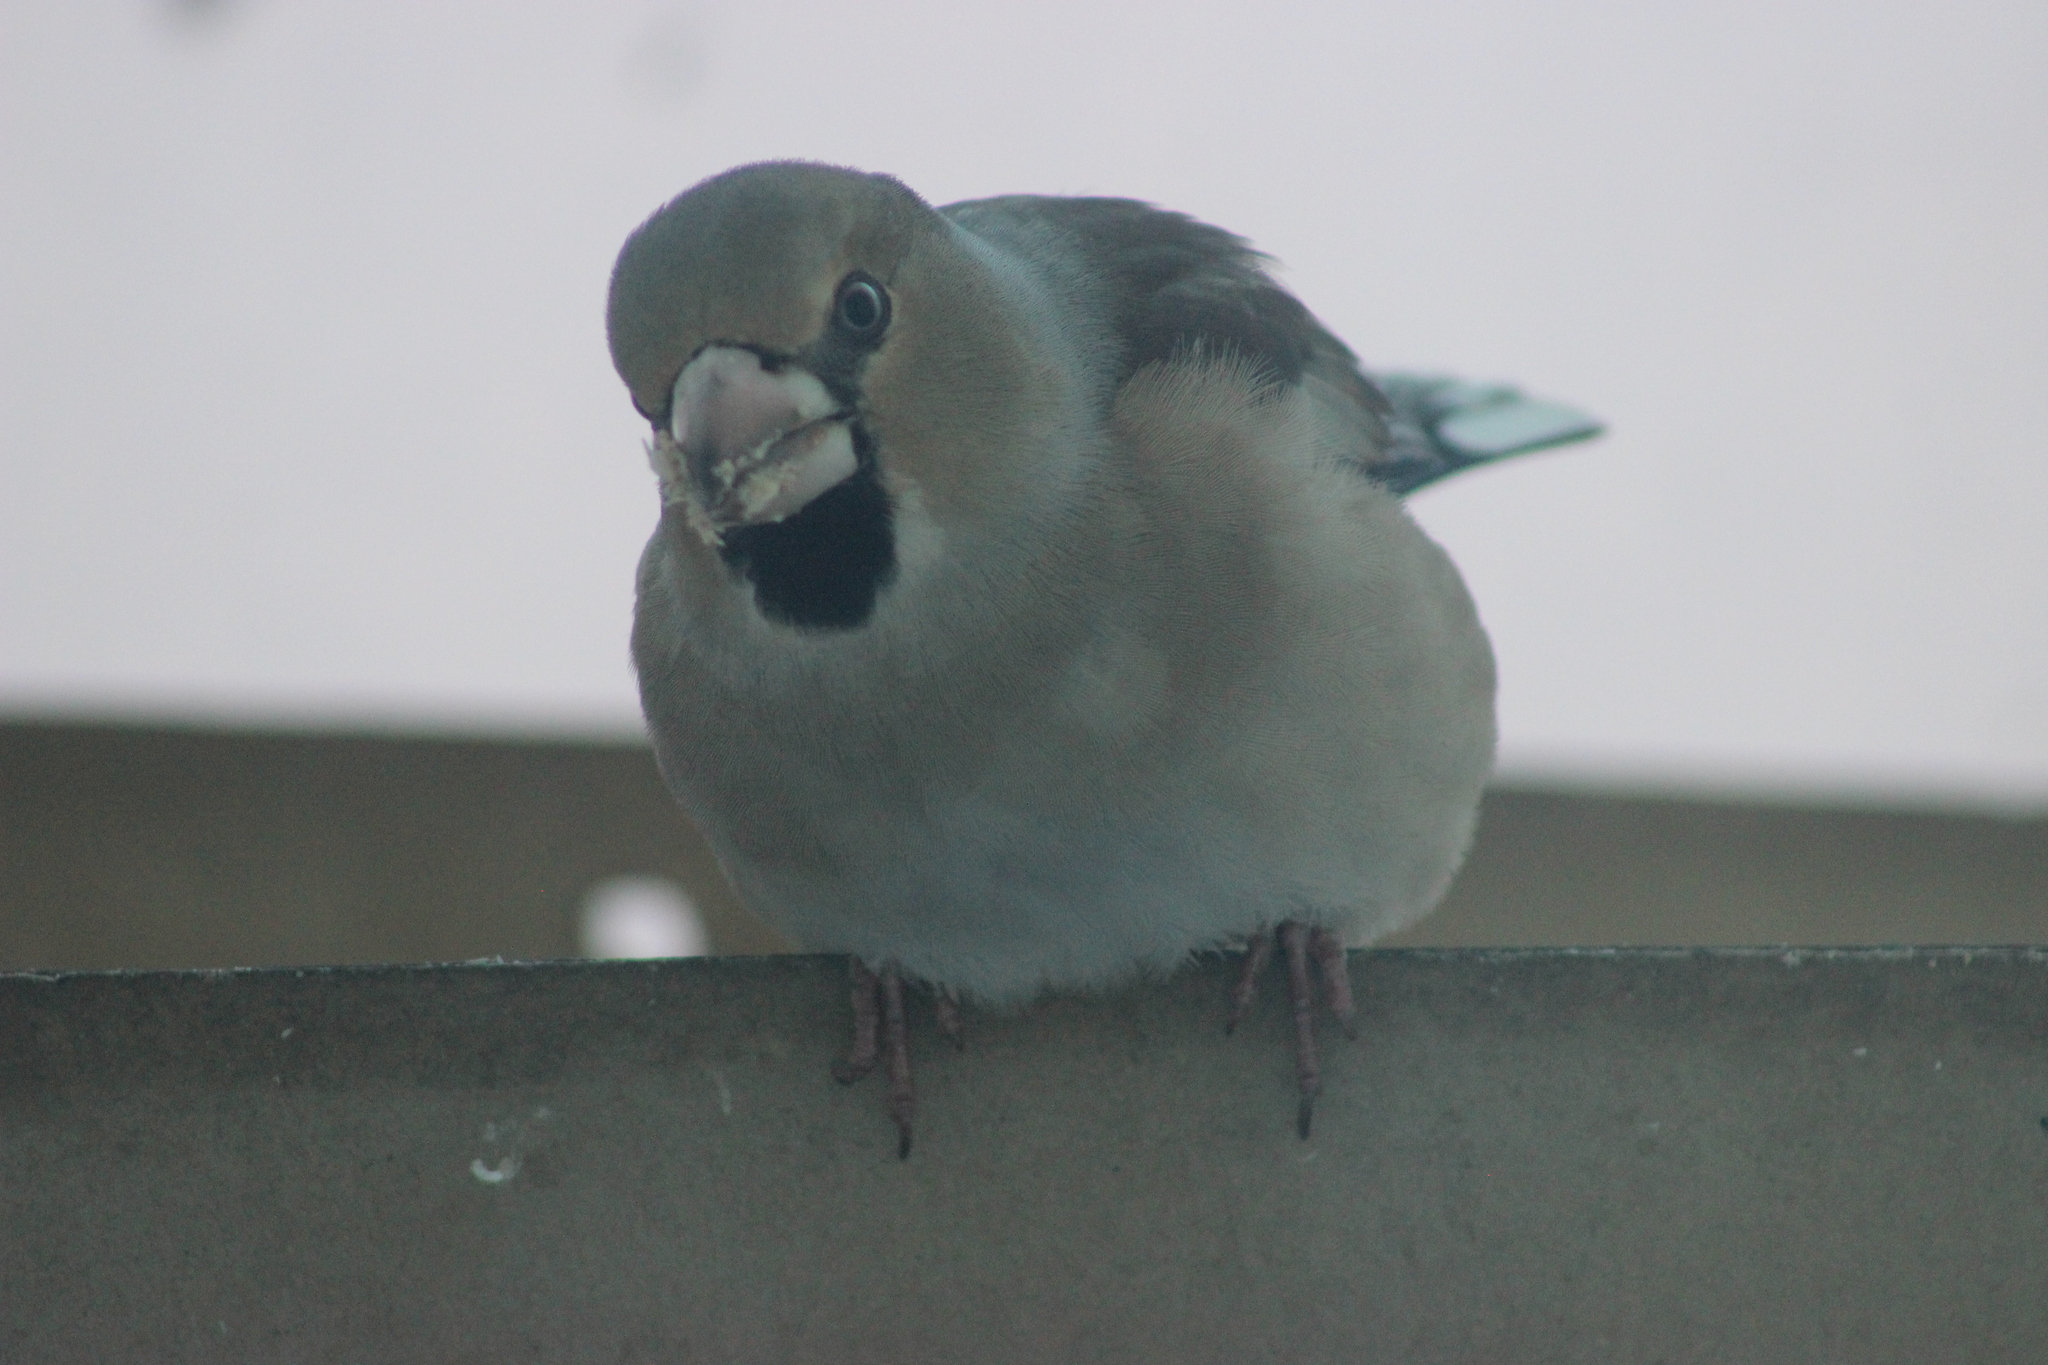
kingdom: Animalia
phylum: Chordata
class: Aves
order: Passeriformes
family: Fringillidae
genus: Coccothraustes
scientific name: Coccothraustes coccothraustes
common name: Hawfinch
